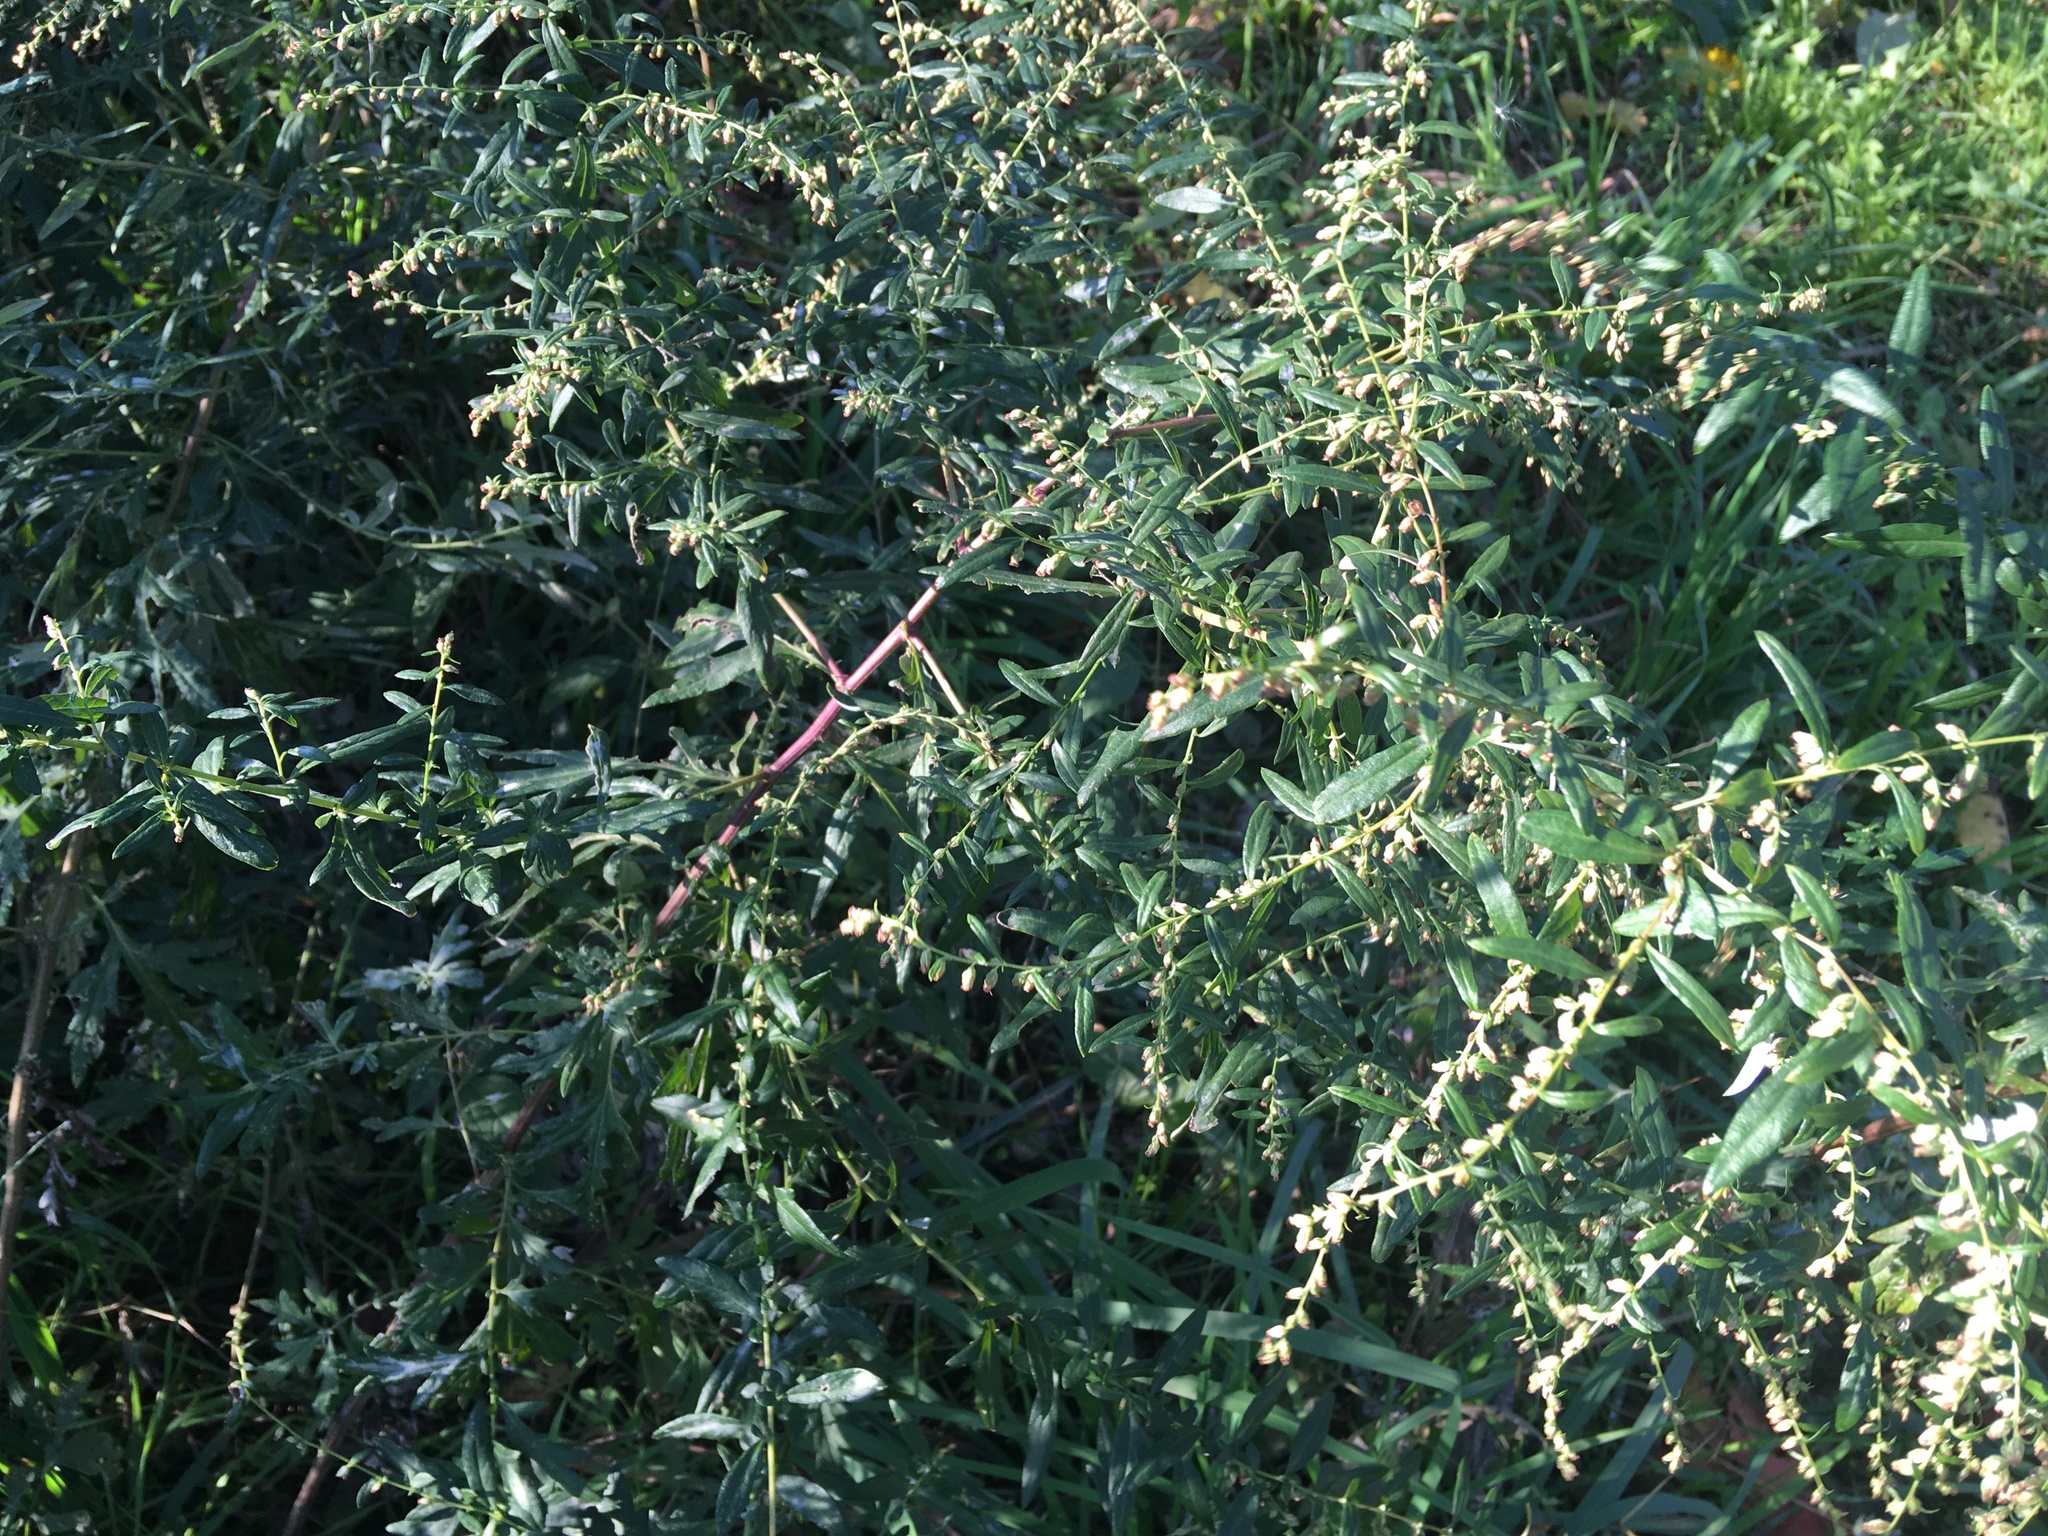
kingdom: Plantae
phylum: Tracheophyta
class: Magnoliopsida
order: Asterales
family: Asteraceae
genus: Artemisia
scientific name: Artemisia vulgaris
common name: Mugwort
